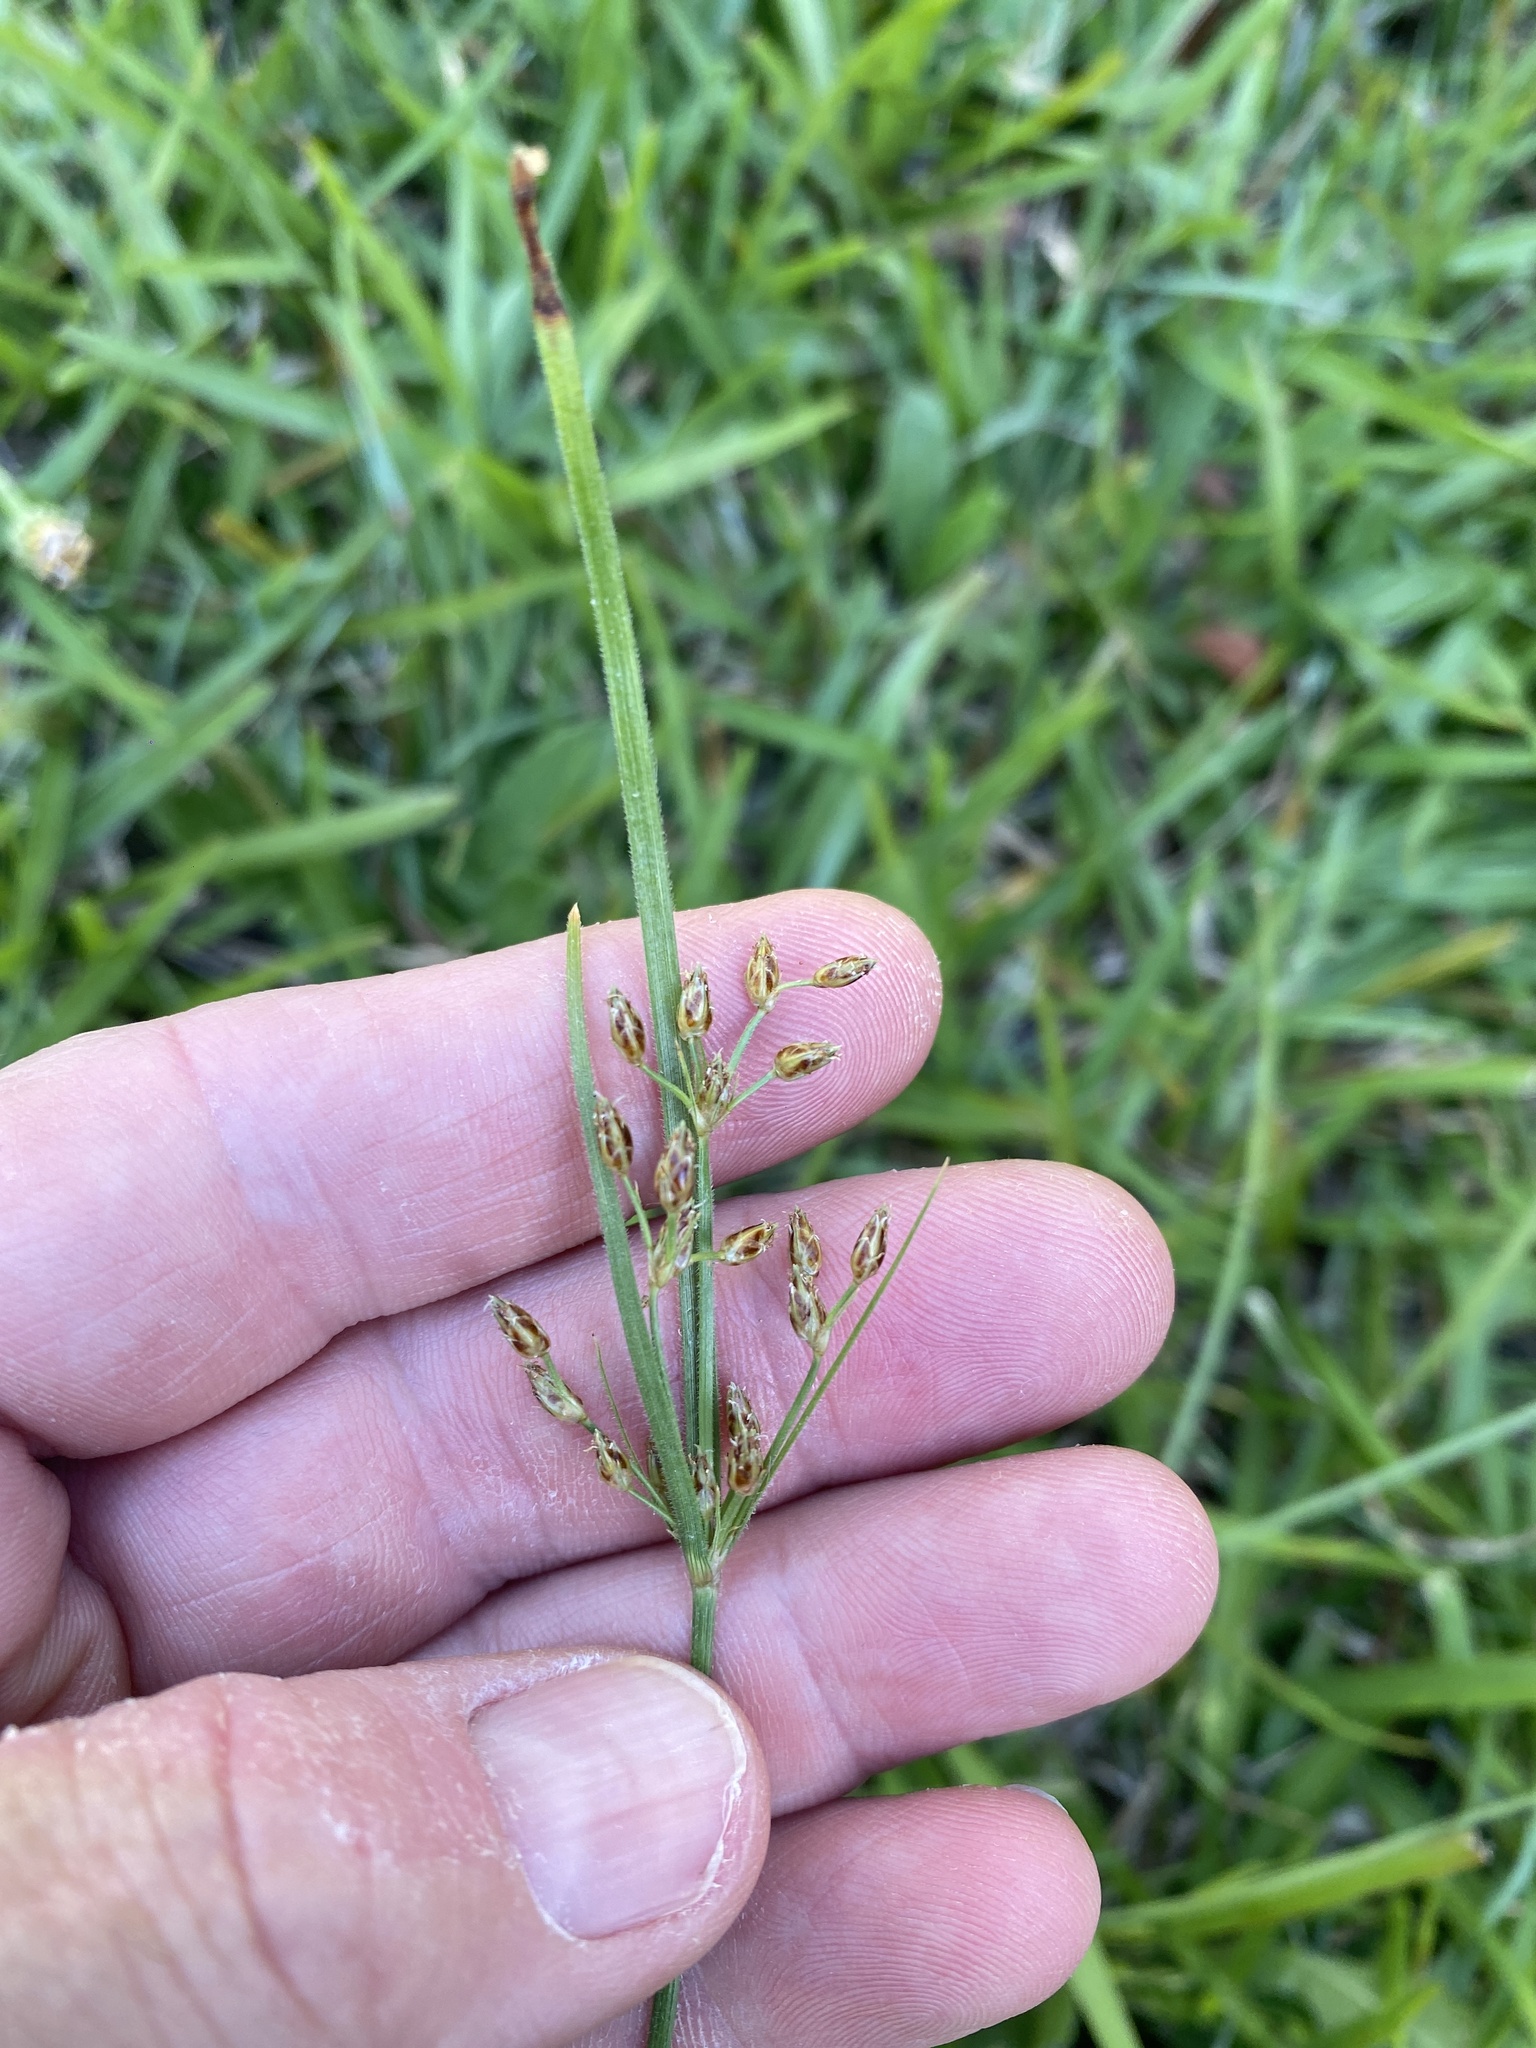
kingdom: Plantae
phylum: Tracheophyta
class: Liliopsida
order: Poales
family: Cyperaceae
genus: Fimbristylis
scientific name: Fimbristylis dichotoma
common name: Forked fimbry
